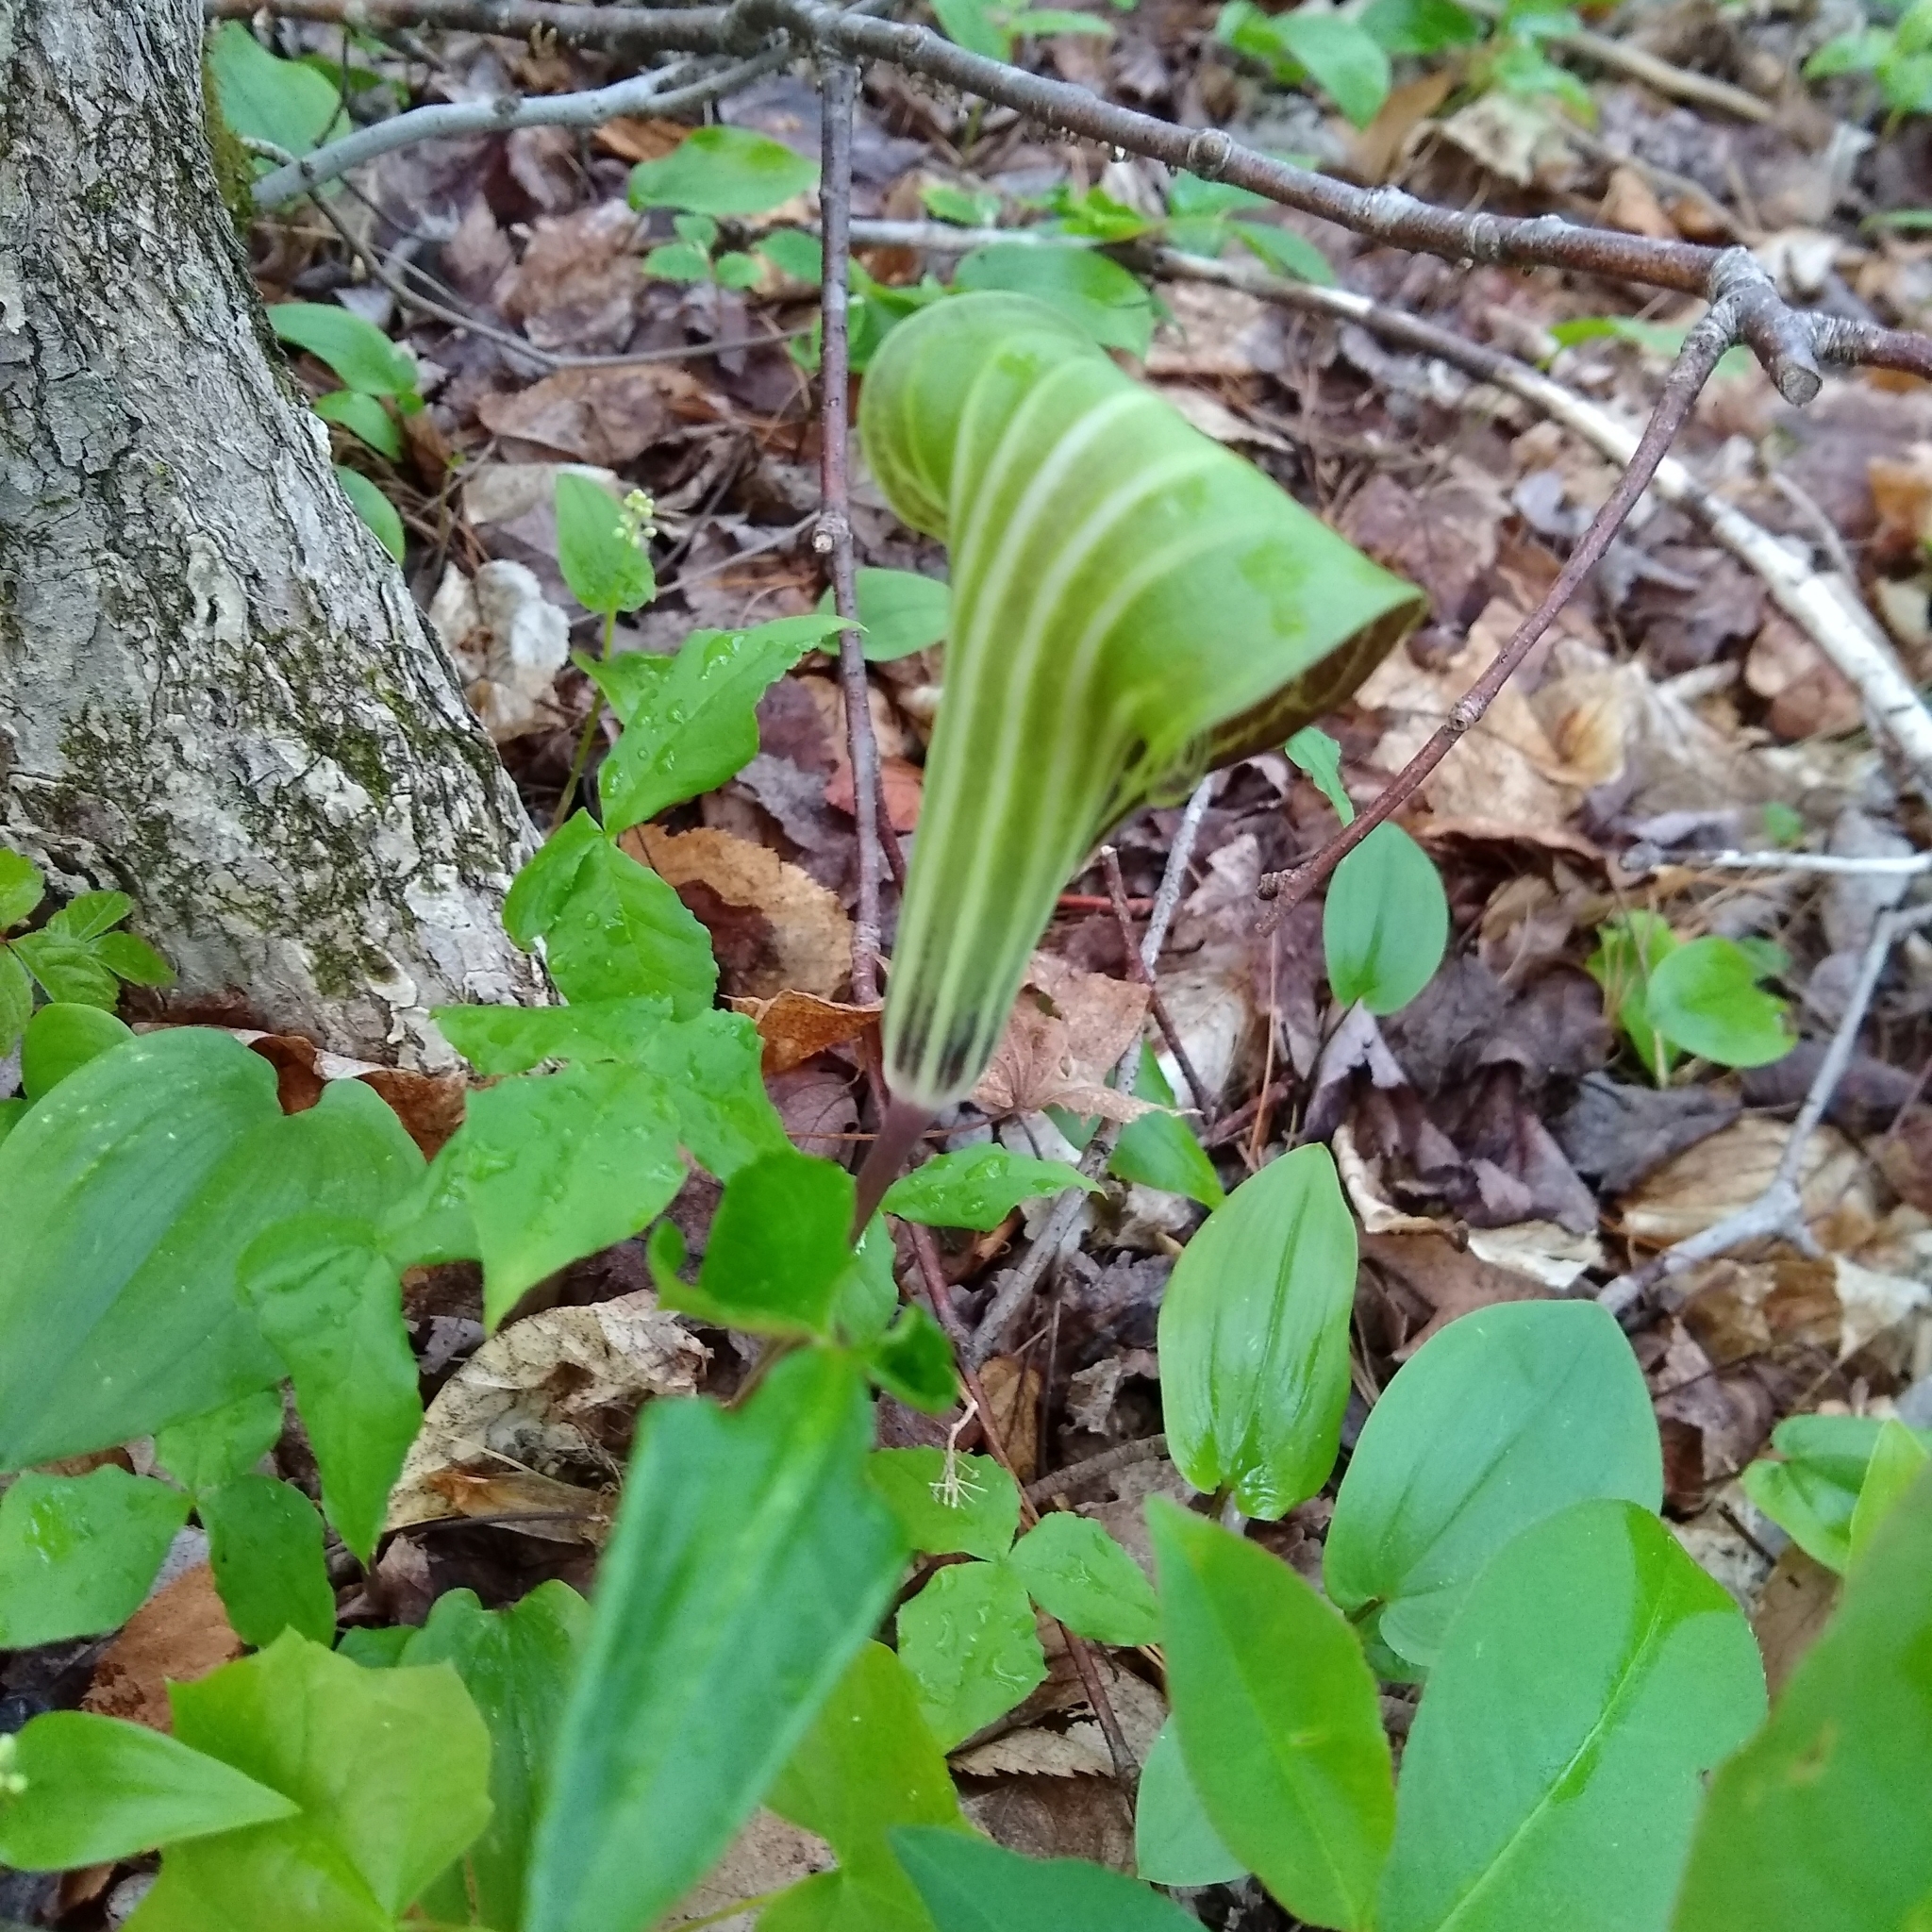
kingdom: Plantae
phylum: Tracheophyta
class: Liliopsida
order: Alismatales
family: Araceae
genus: Arisaema
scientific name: Arisaema triphyllum
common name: Jack-in-the-pulpit
